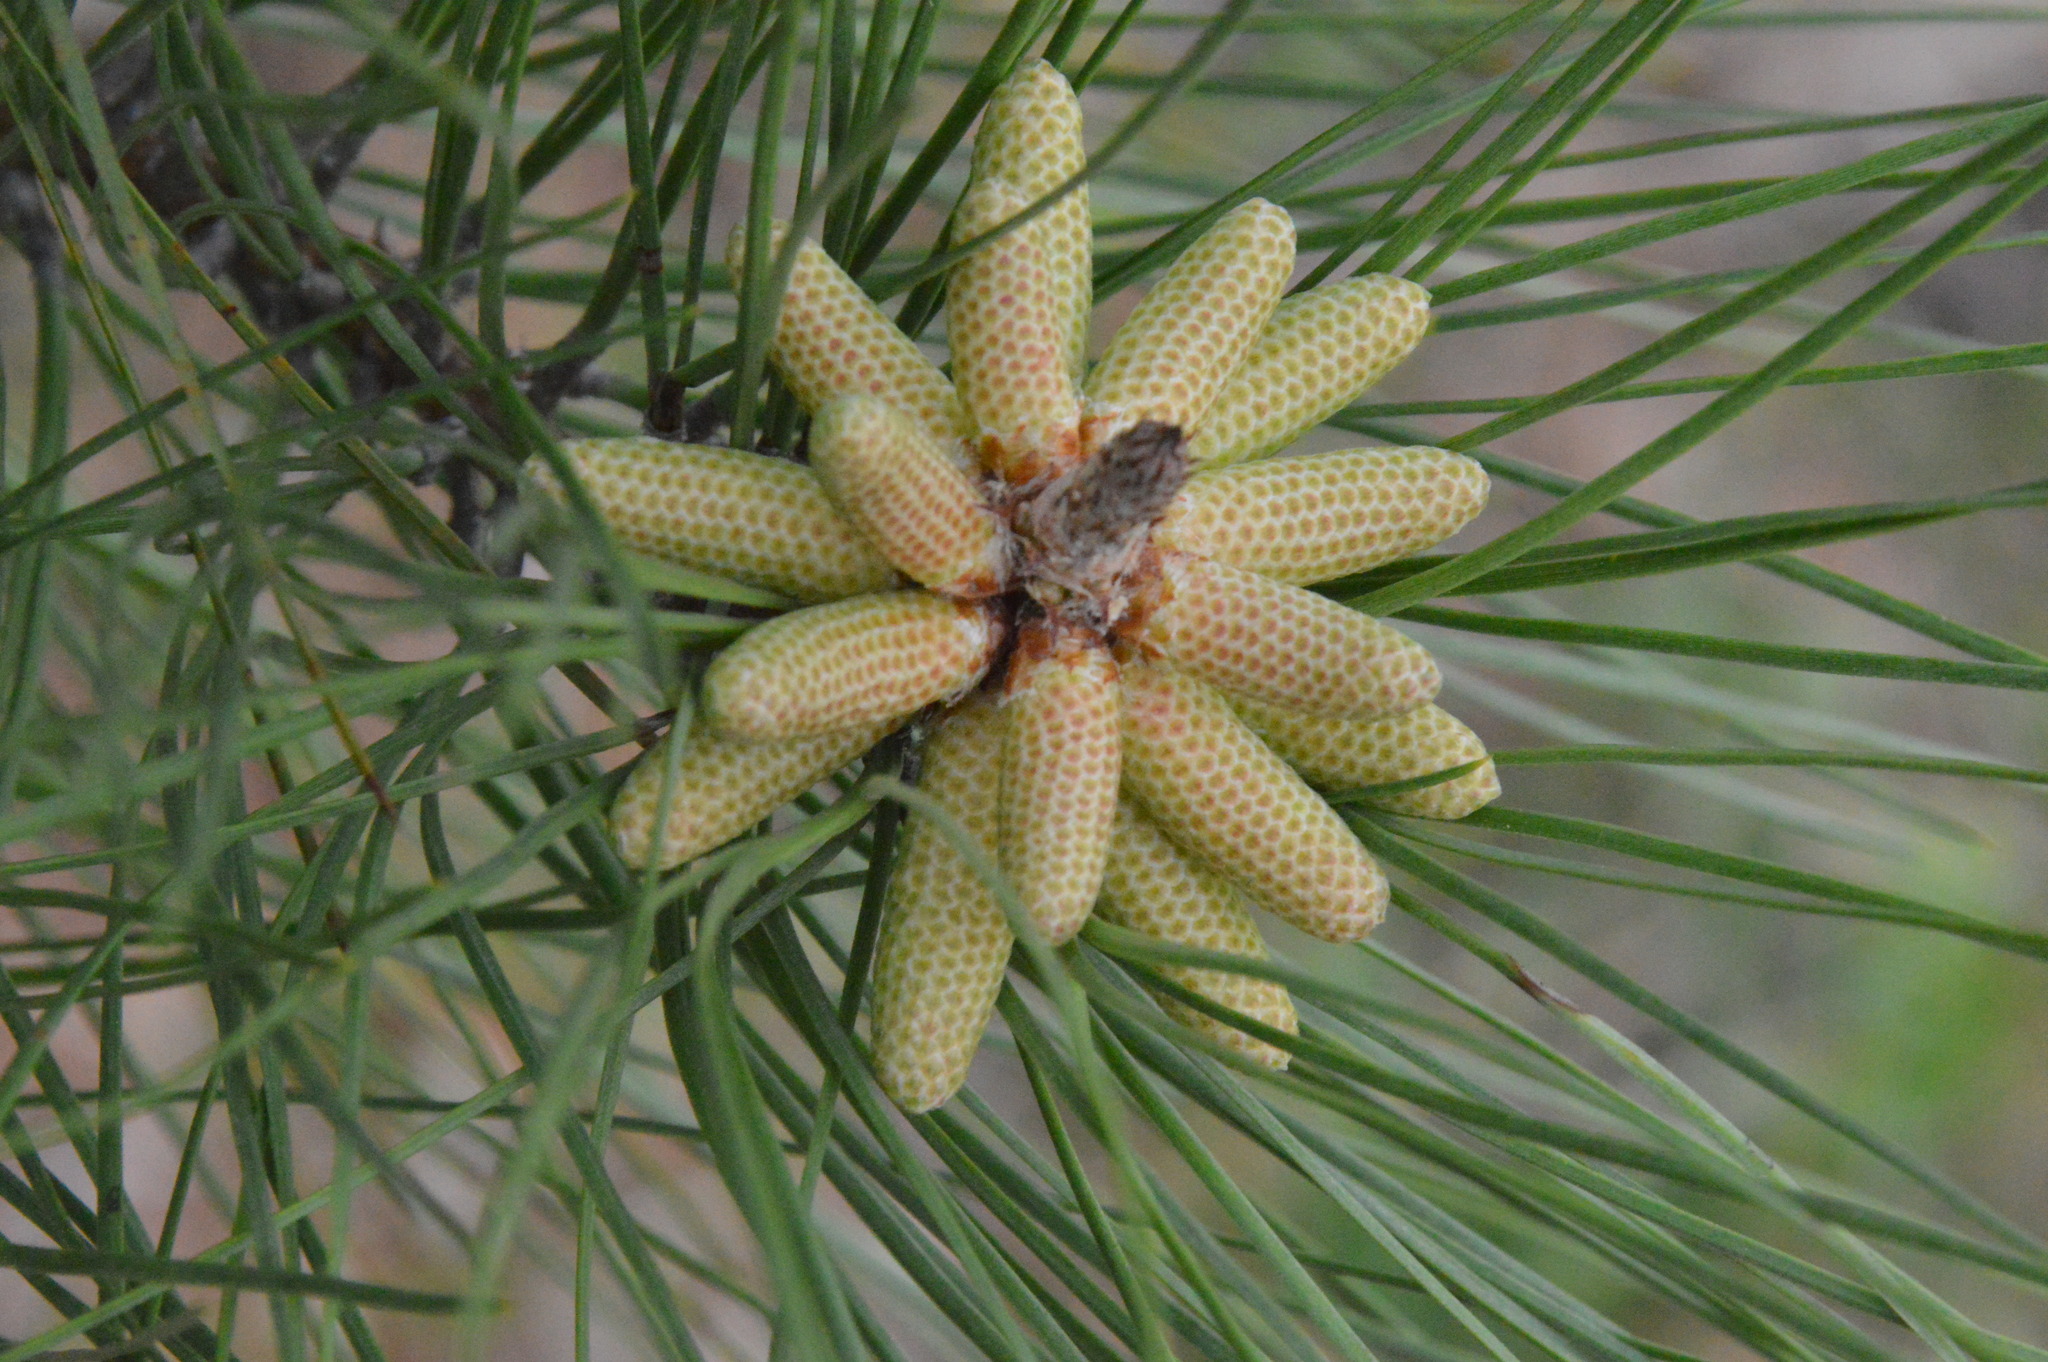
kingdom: Plantae
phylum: Tracheophyta
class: Pinopsida
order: Pinales
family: Pinaceae
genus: Pinus
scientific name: Pinus taeda
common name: Loblolly pine
